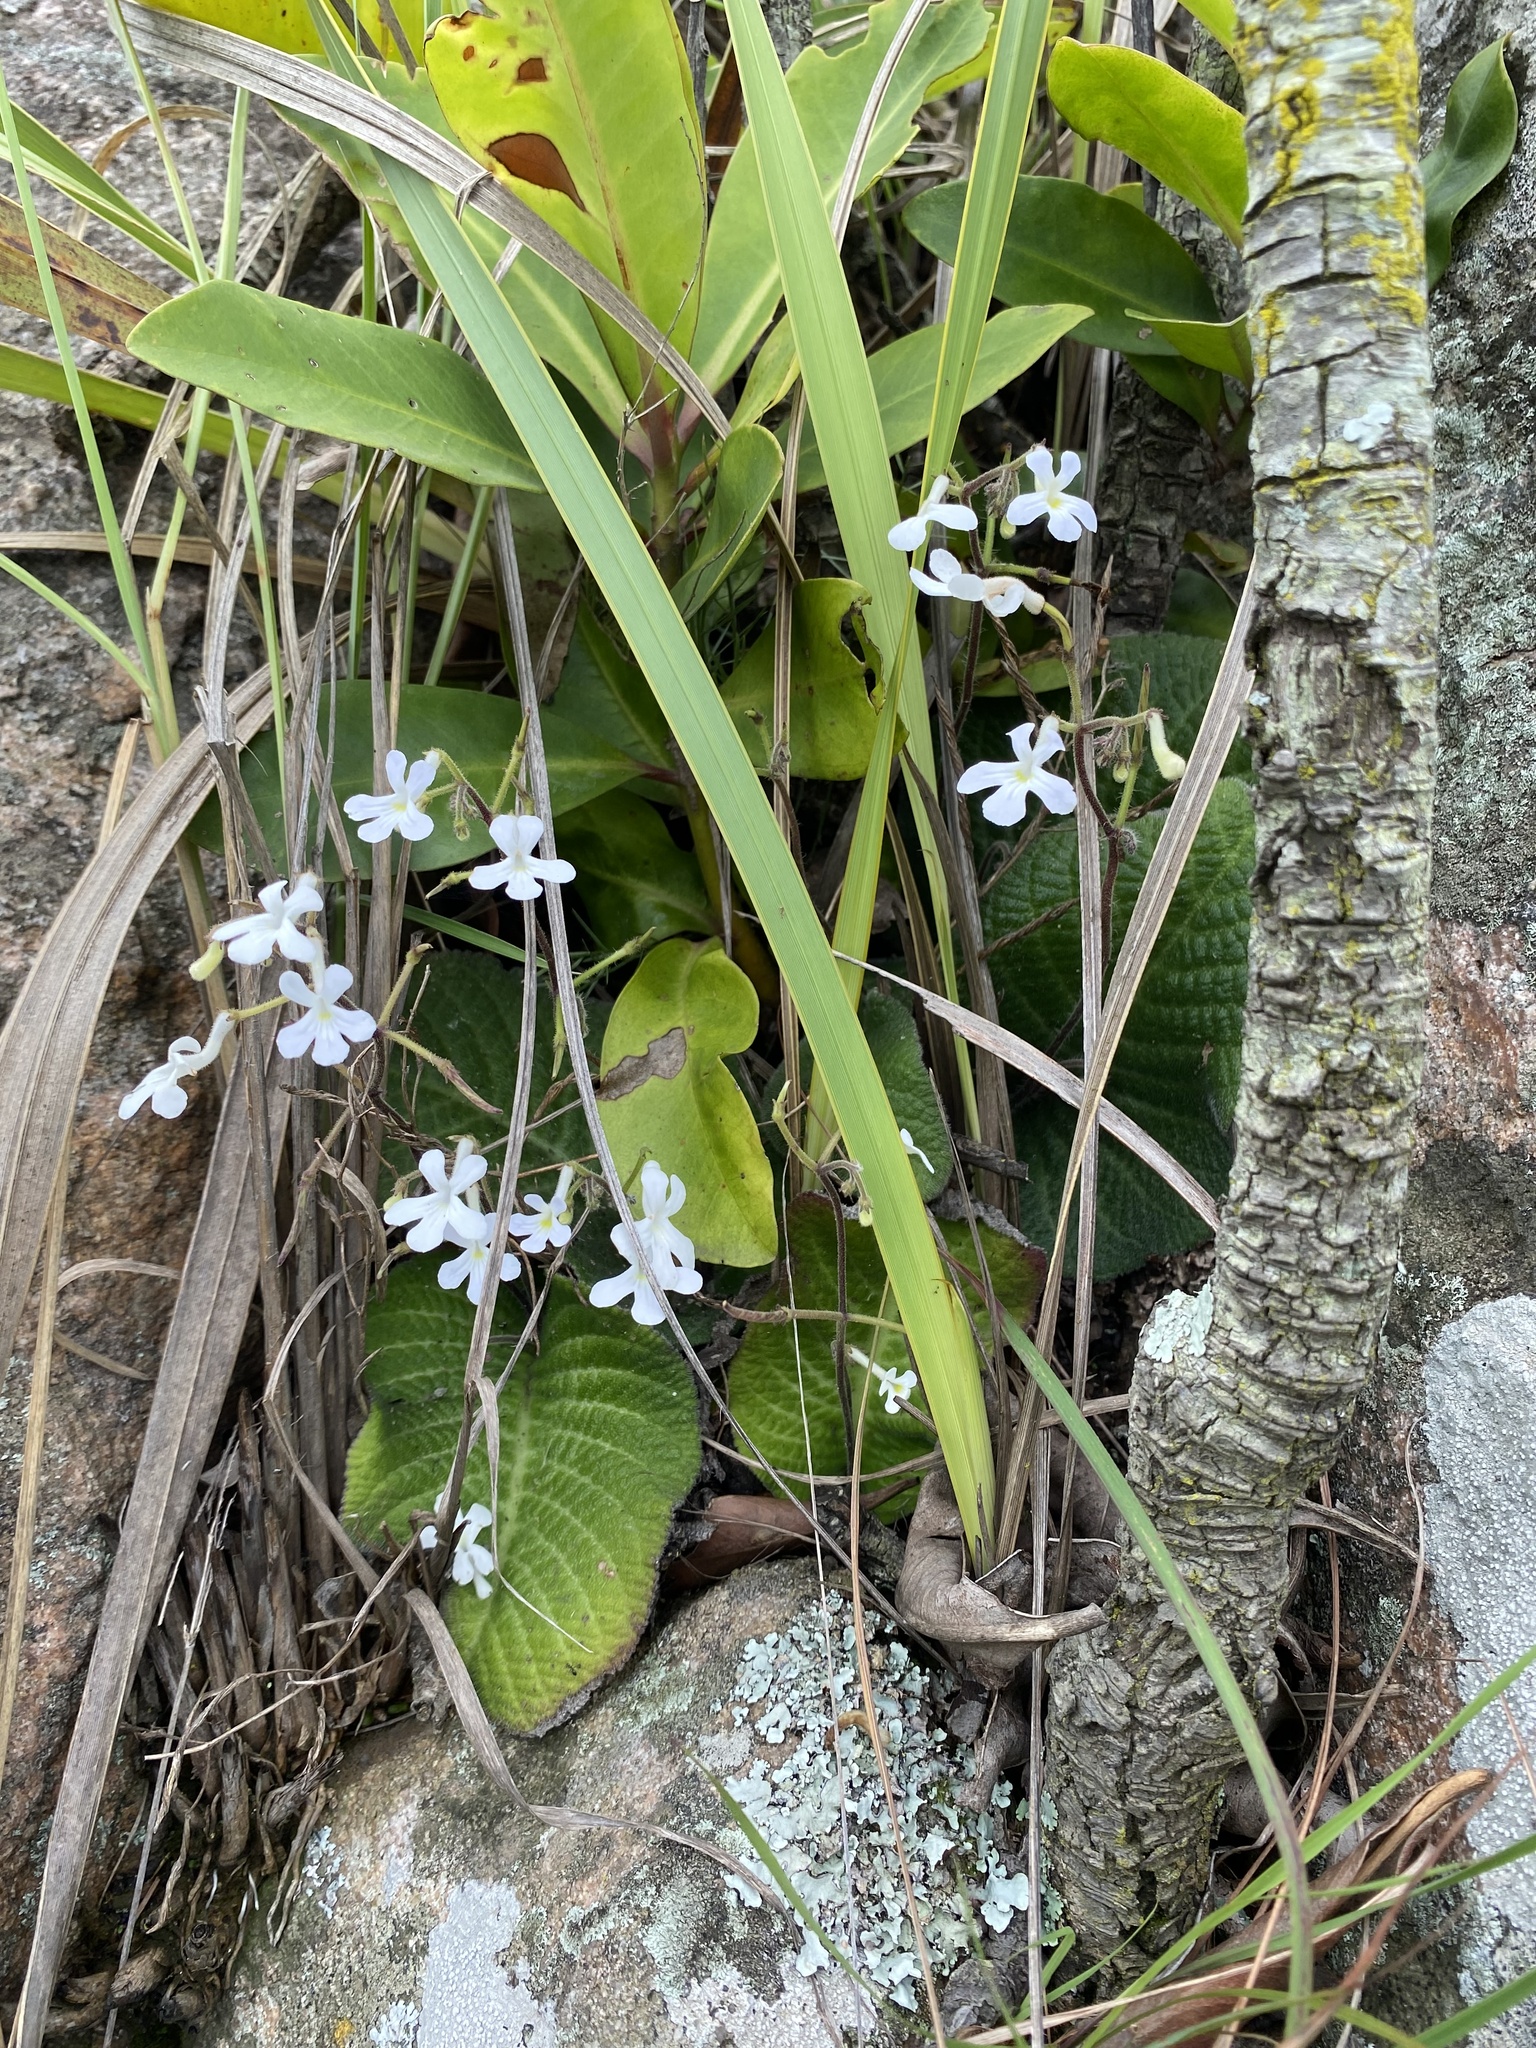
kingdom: Plantae
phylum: Tracheophyta
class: Magnoliopsida
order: Lamiales
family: Gesneriaceae
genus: Streptocarpus
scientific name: Streptocarpus prolixus
